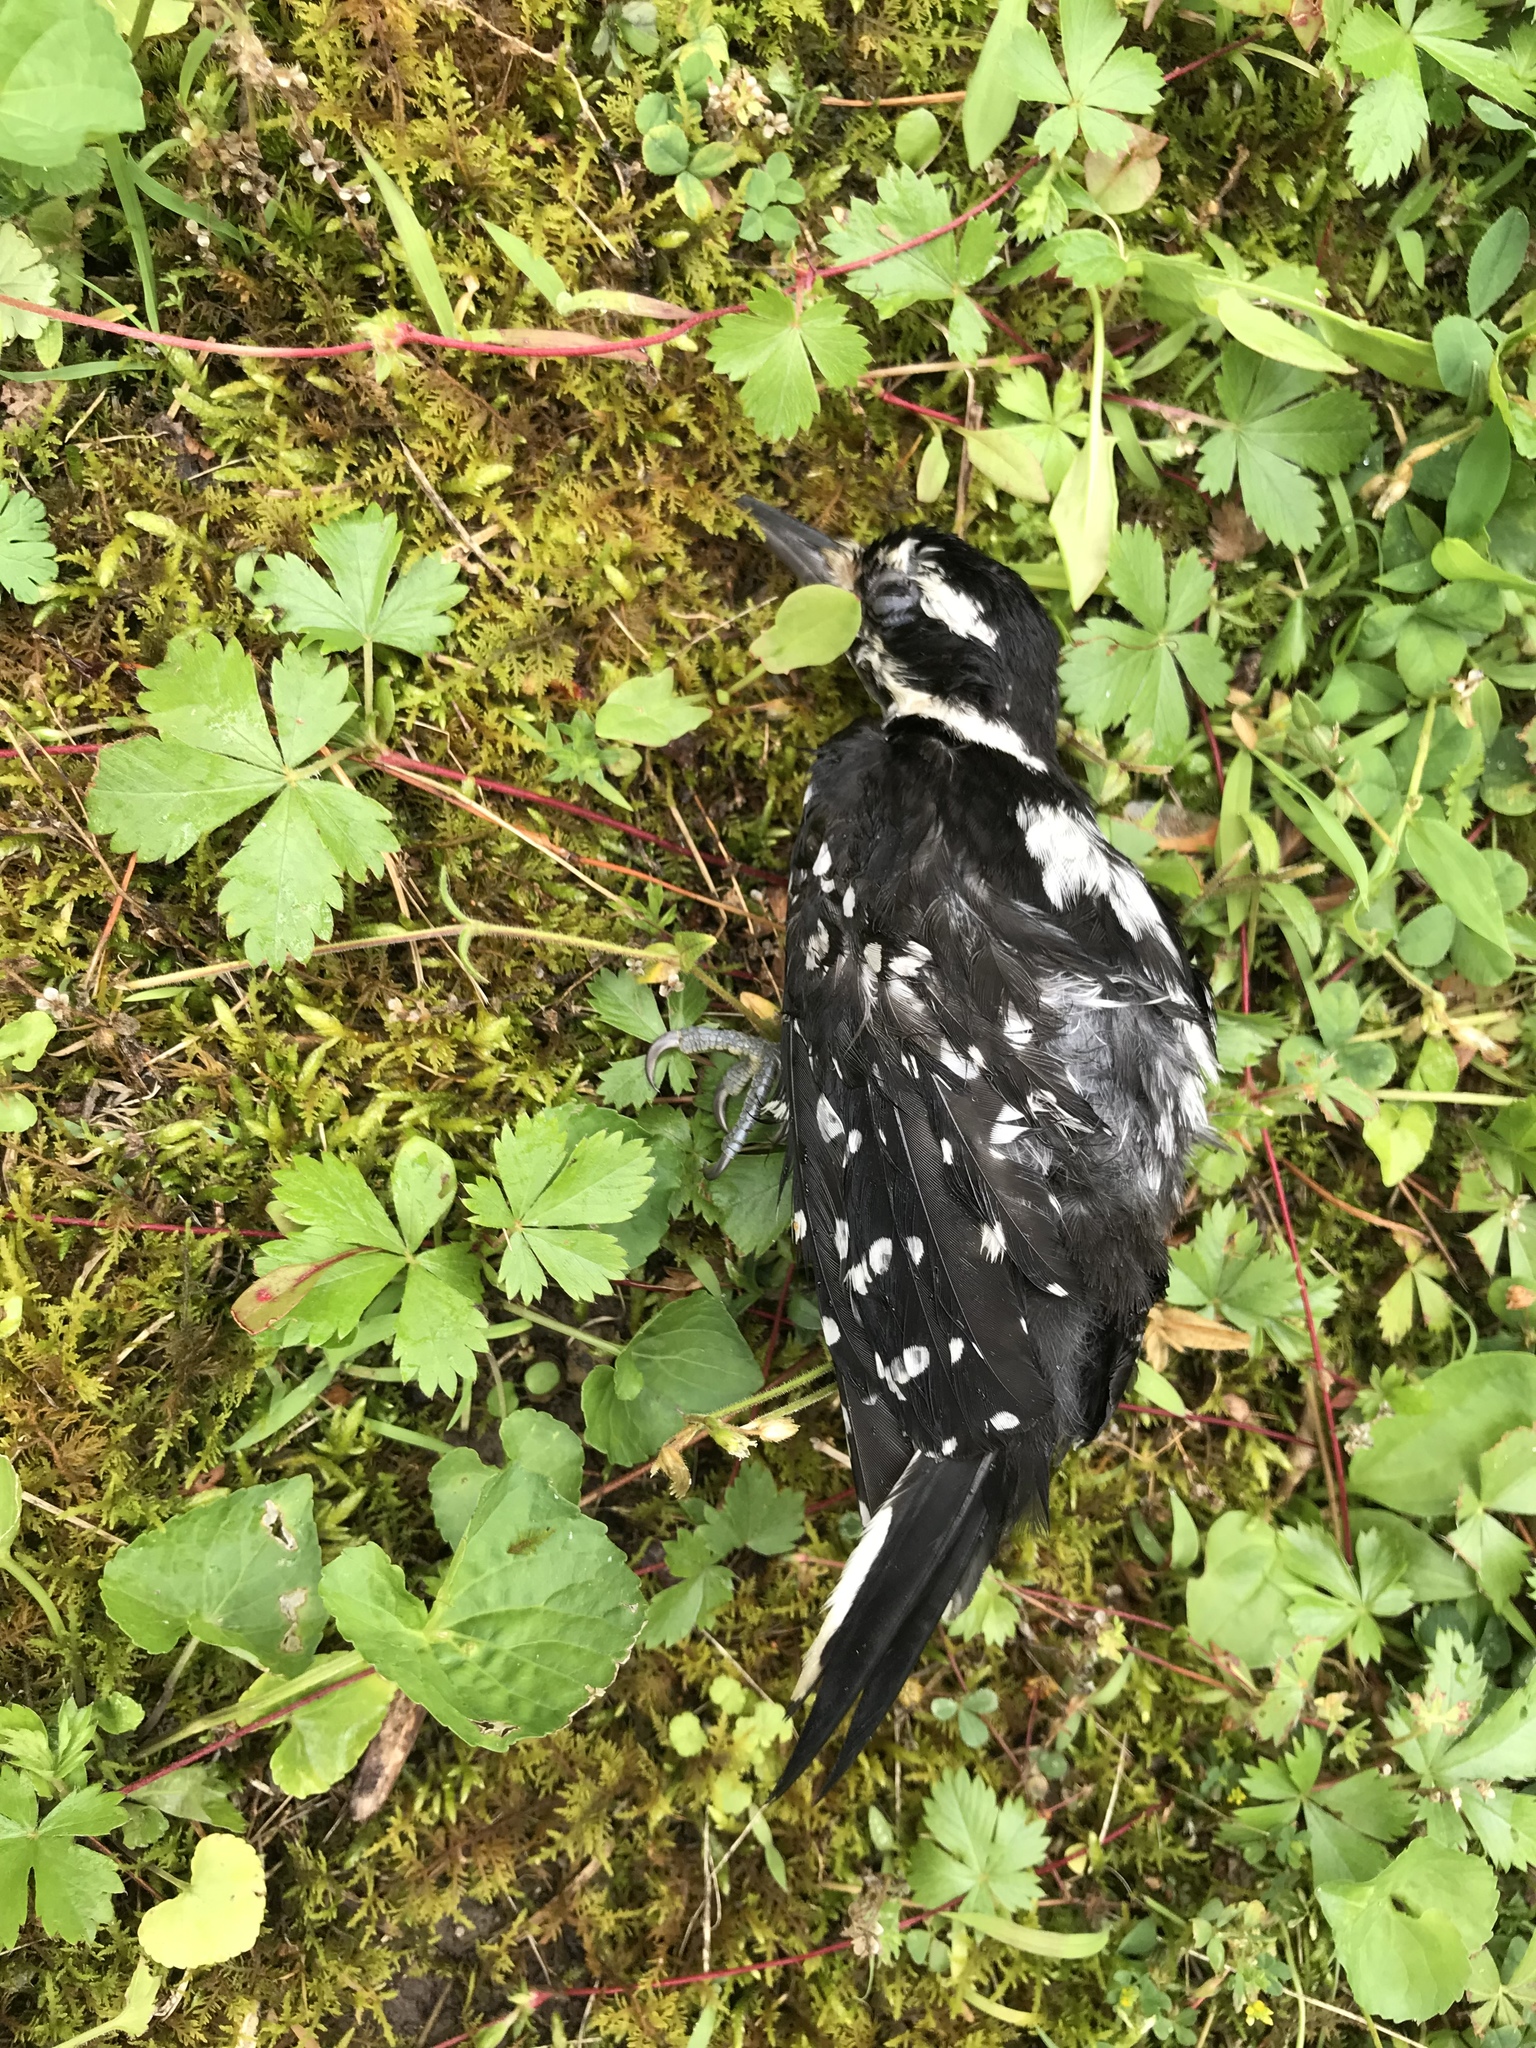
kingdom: Animalia
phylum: Chordata
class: Aves
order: Piciformes
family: Picidae
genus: Leuconotopicus
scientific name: Leuconotopicus villosus
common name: Hairy woodpecker
